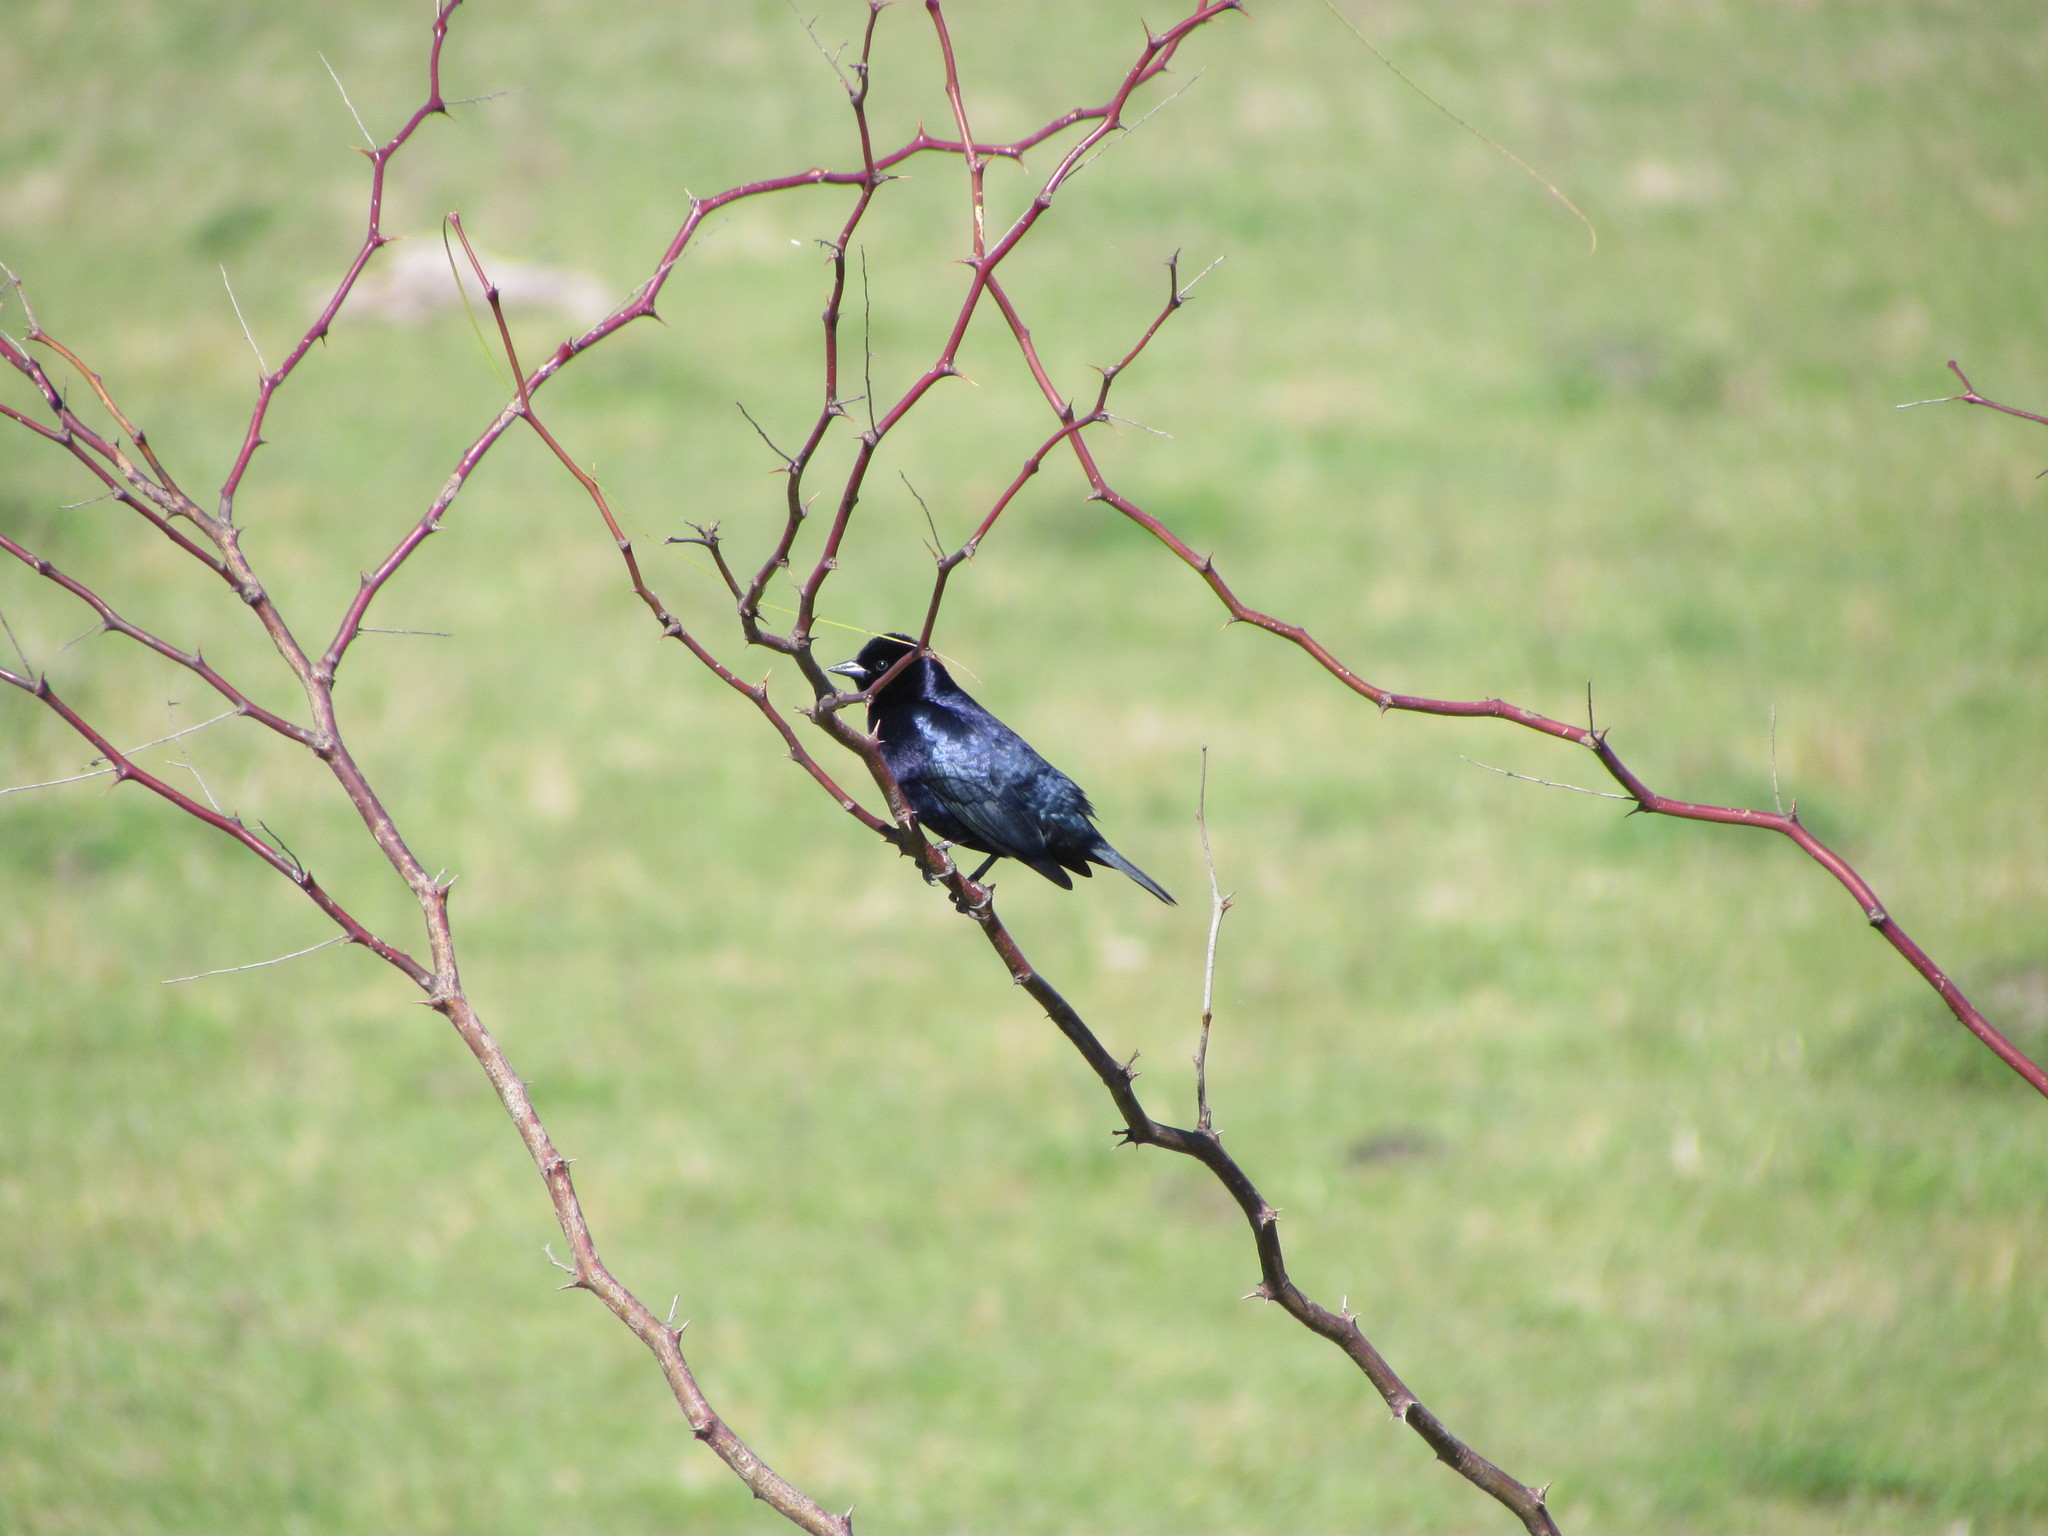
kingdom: Animalia
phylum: Chordata
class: Aves
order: Passeriformes
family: Icteridae
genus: Molothrus
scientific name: Molothrus bonariensis
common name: Shiny cowbird
